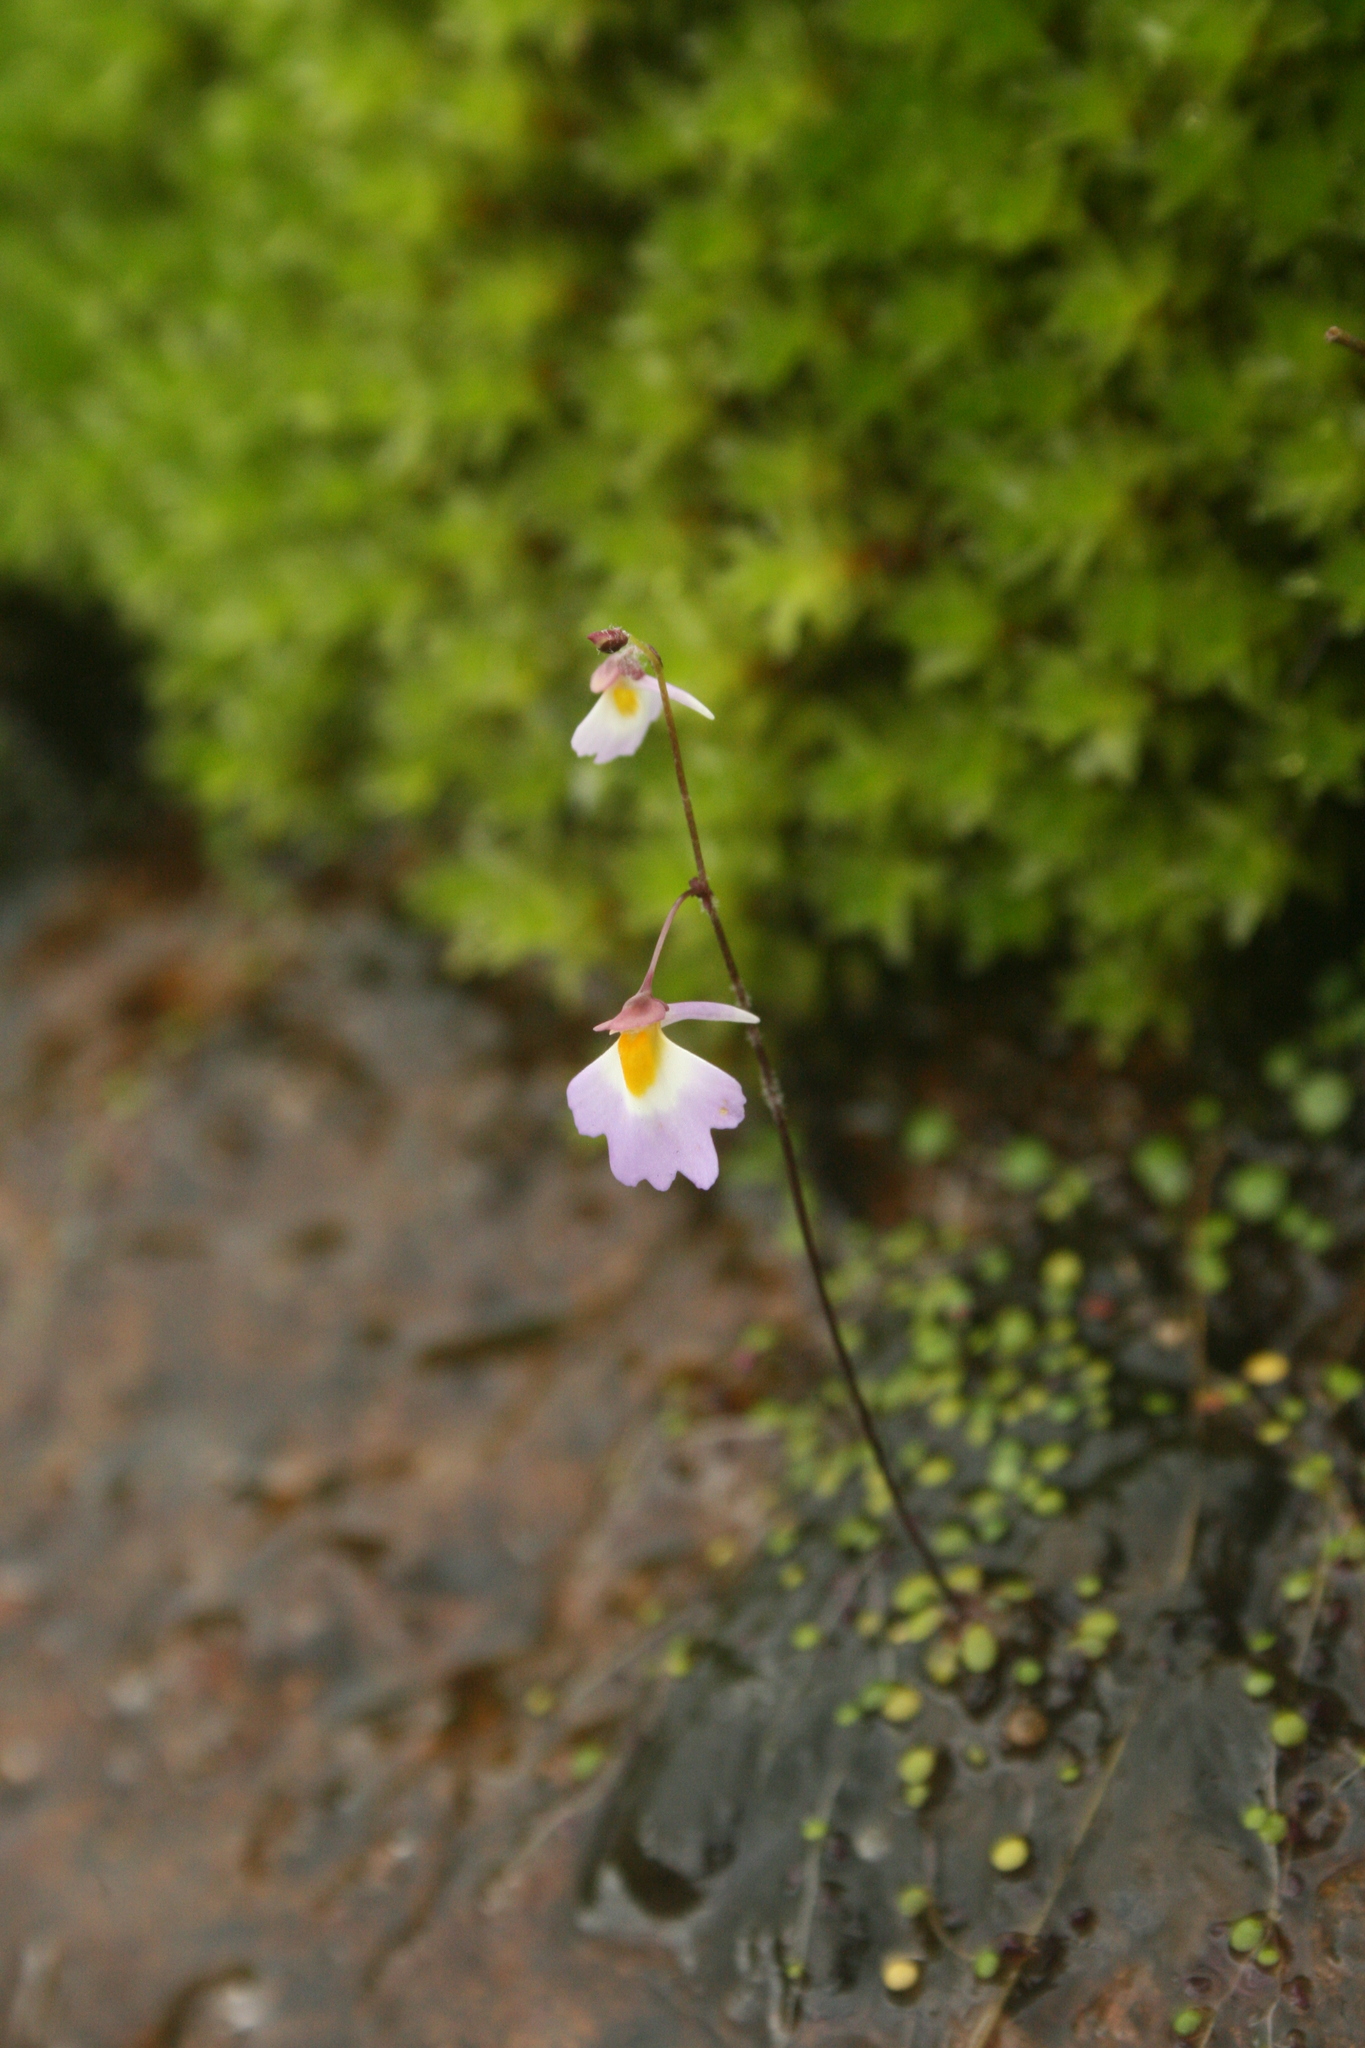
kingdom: Plantae
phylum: Tracheophyta
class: Magnoliopsida
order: Lamiales
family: Lentibulariaceae
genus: Utricularia
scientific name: Utricularia striatula
